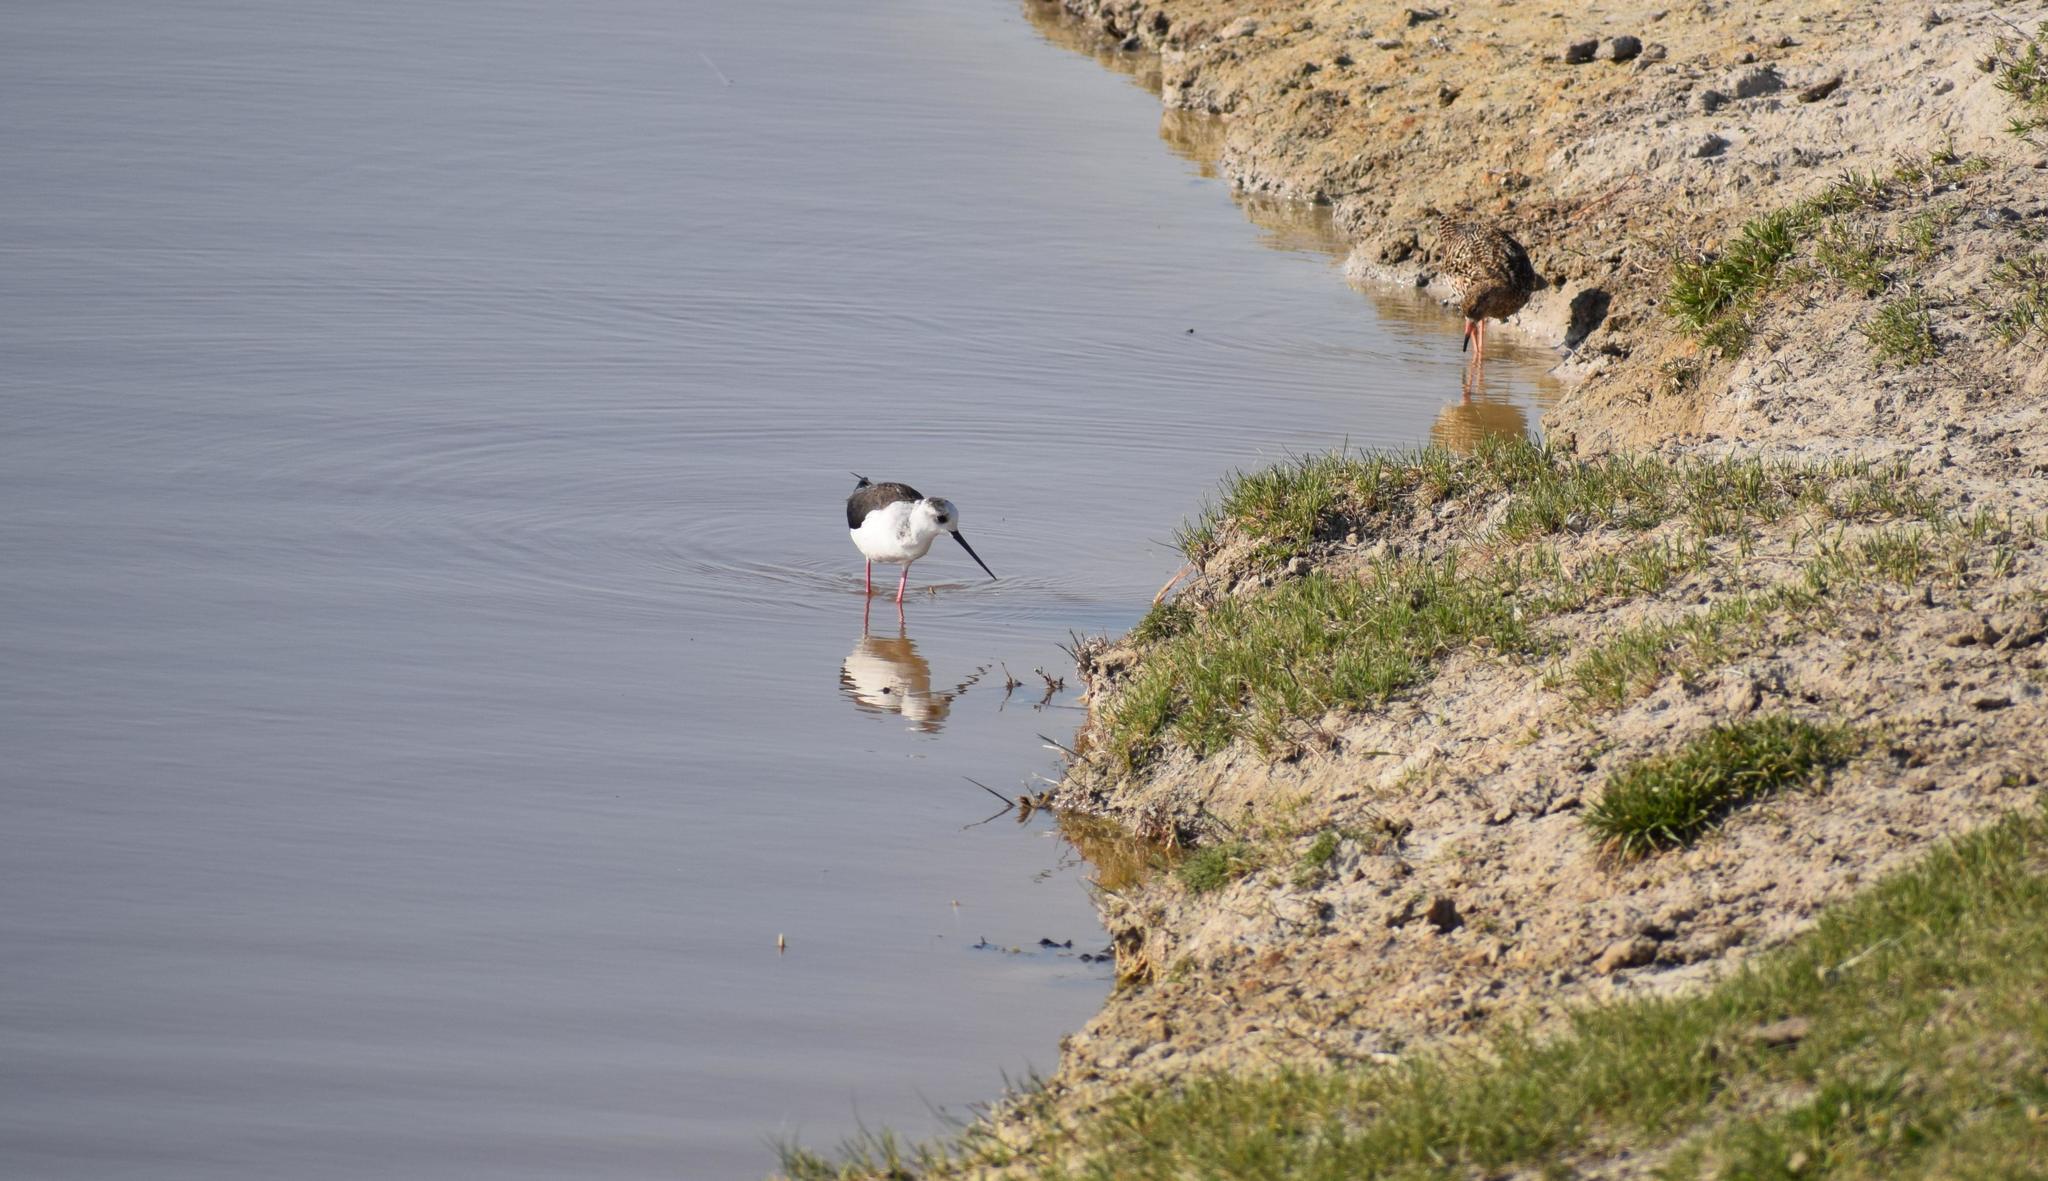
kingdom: Animalia
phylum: Chordata
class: Aves
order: Charadriiformes
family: Recurvirostridae
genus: Himantopus
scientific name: Himantopus himantopus
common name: Black-winged stilt
